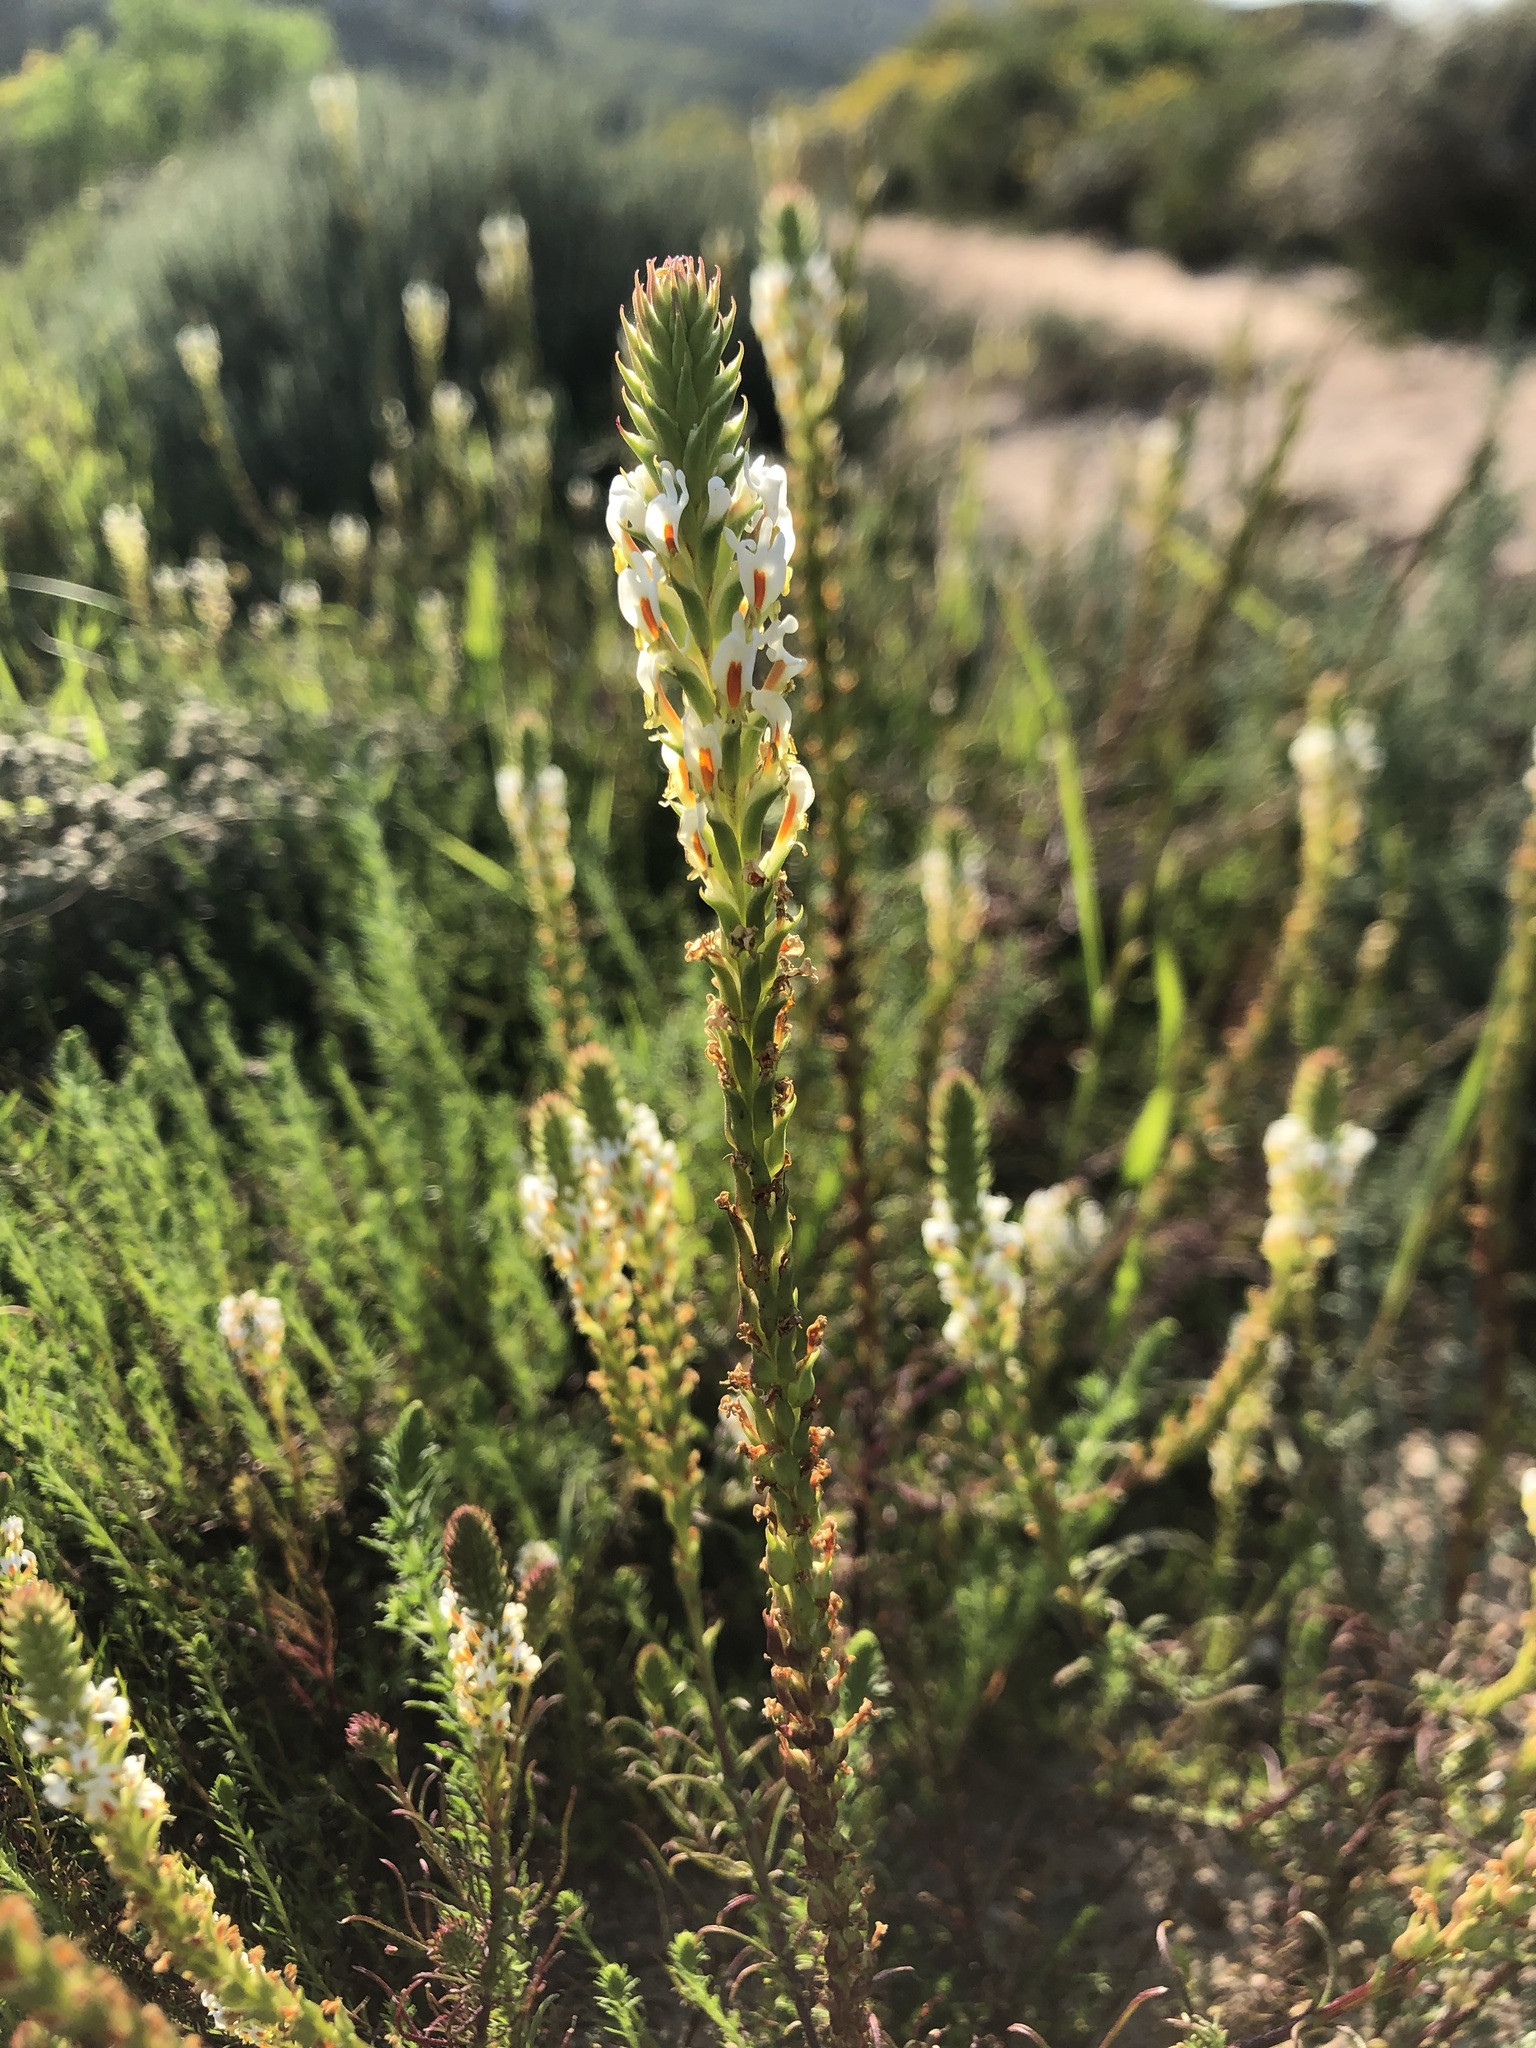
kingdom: Plantae
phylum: Tracheophyta
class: Magnoliopsida
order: Lamiales
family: Scrophulariaceae
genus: Hebenstretia
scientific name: Hebenstretia repens
